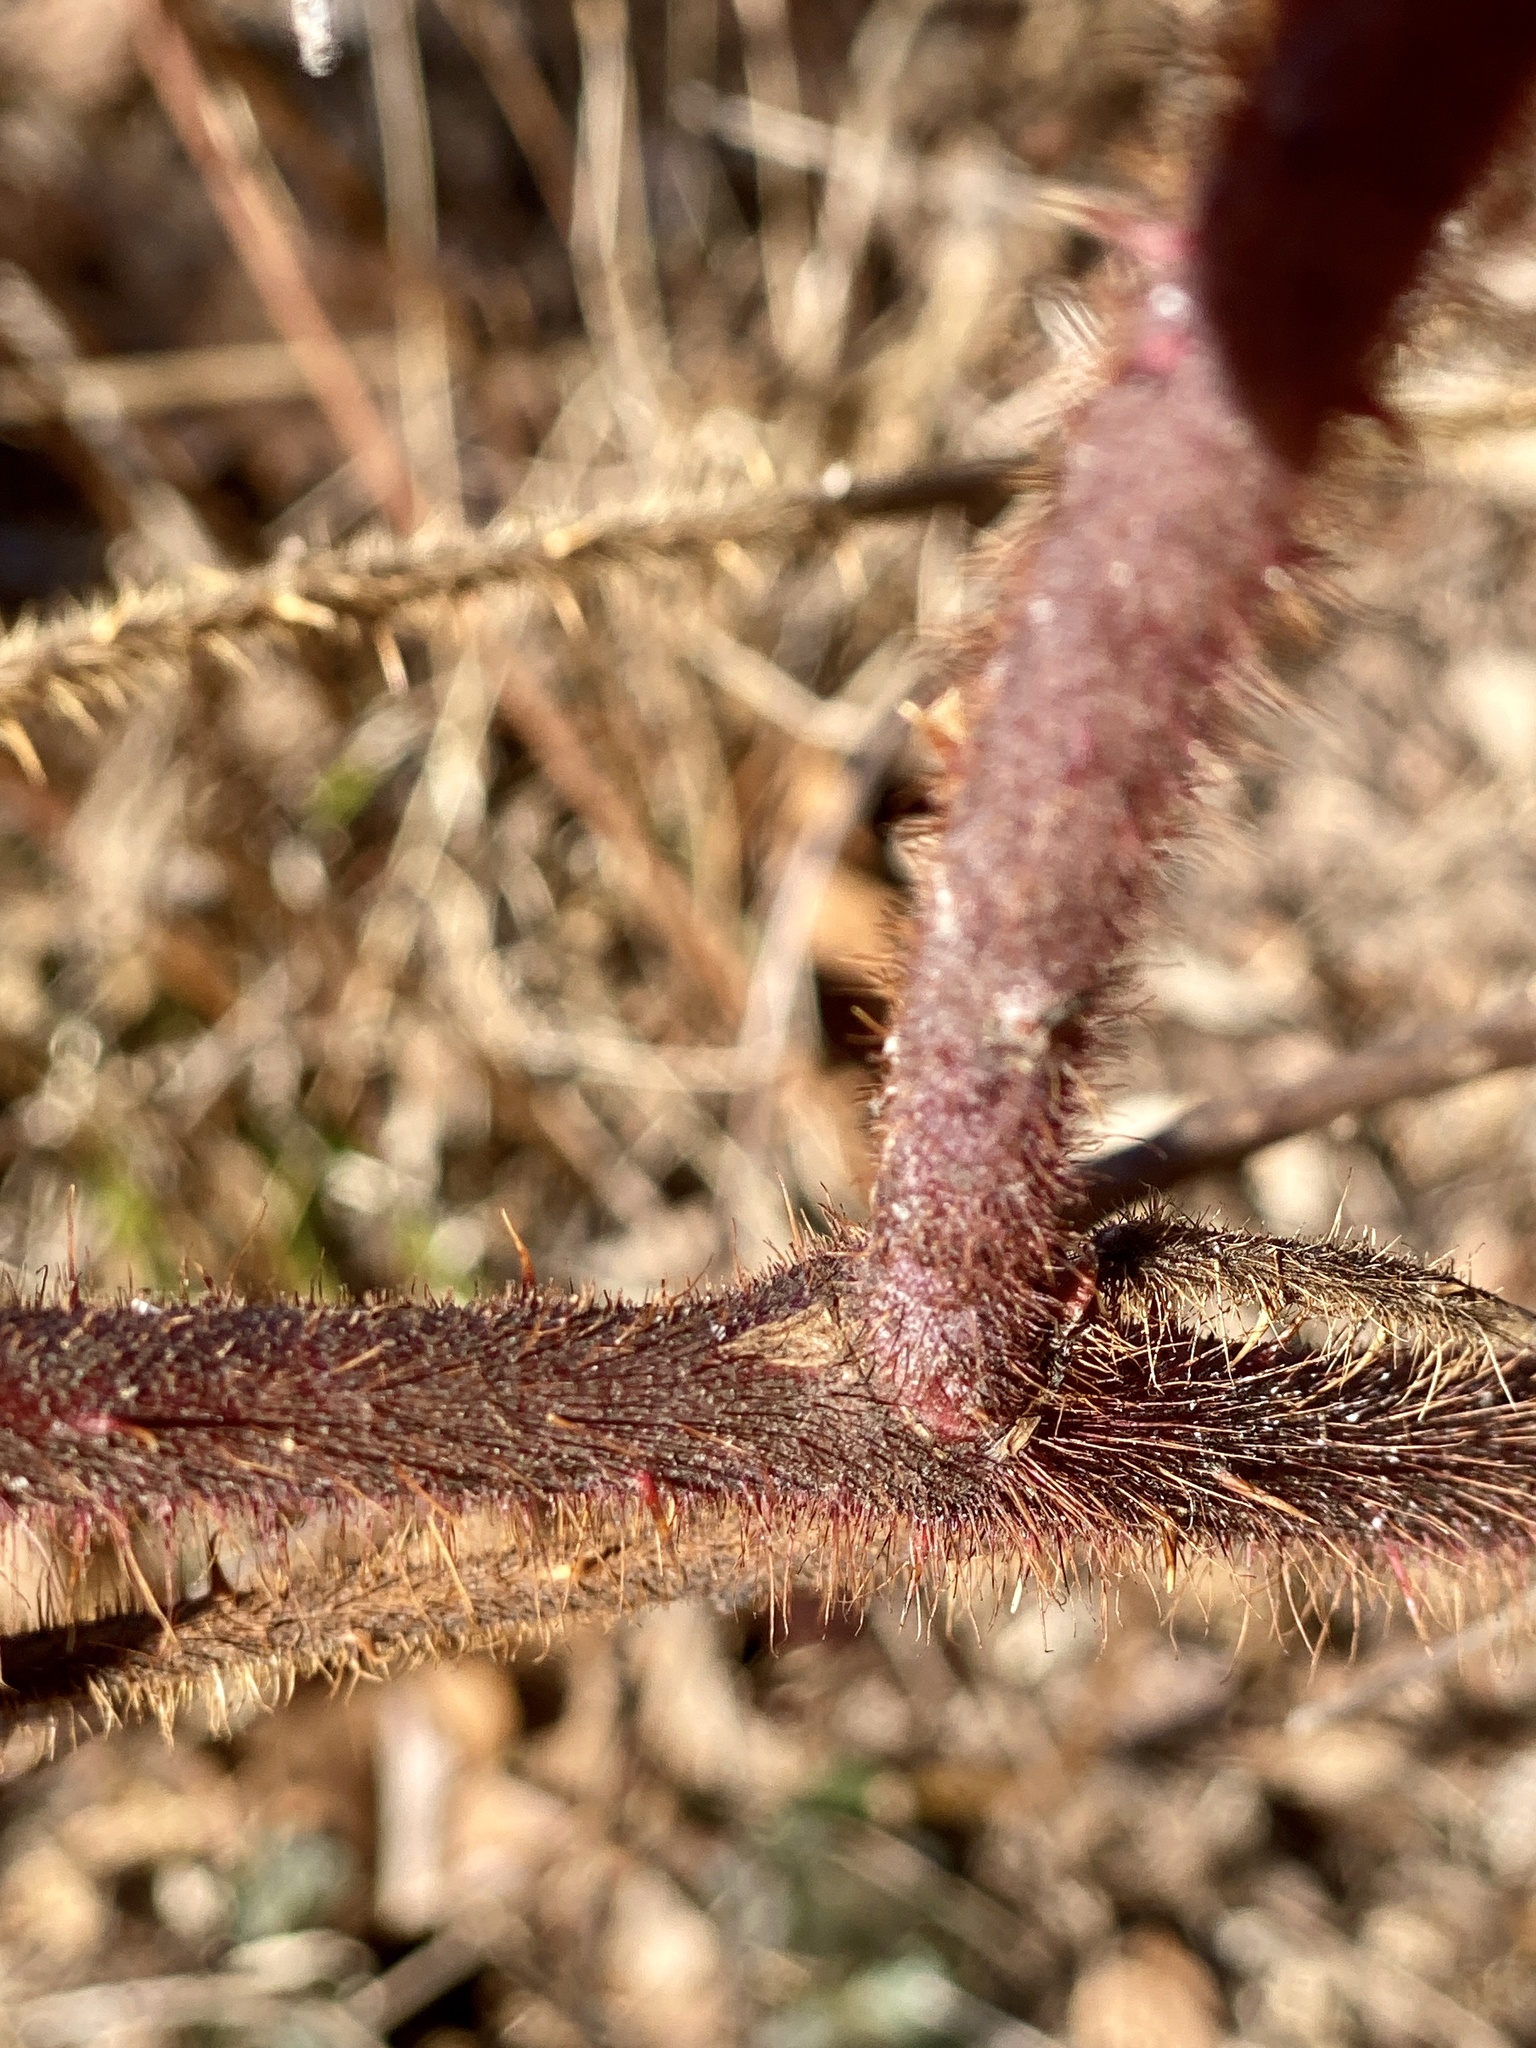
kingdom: Plantae
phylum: Tracheophyta
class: Magnoliopsida
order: Rosales
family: Rosaceae
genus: Rubus
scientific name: Rubus phoenicolasius
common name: Japanese wineberry
